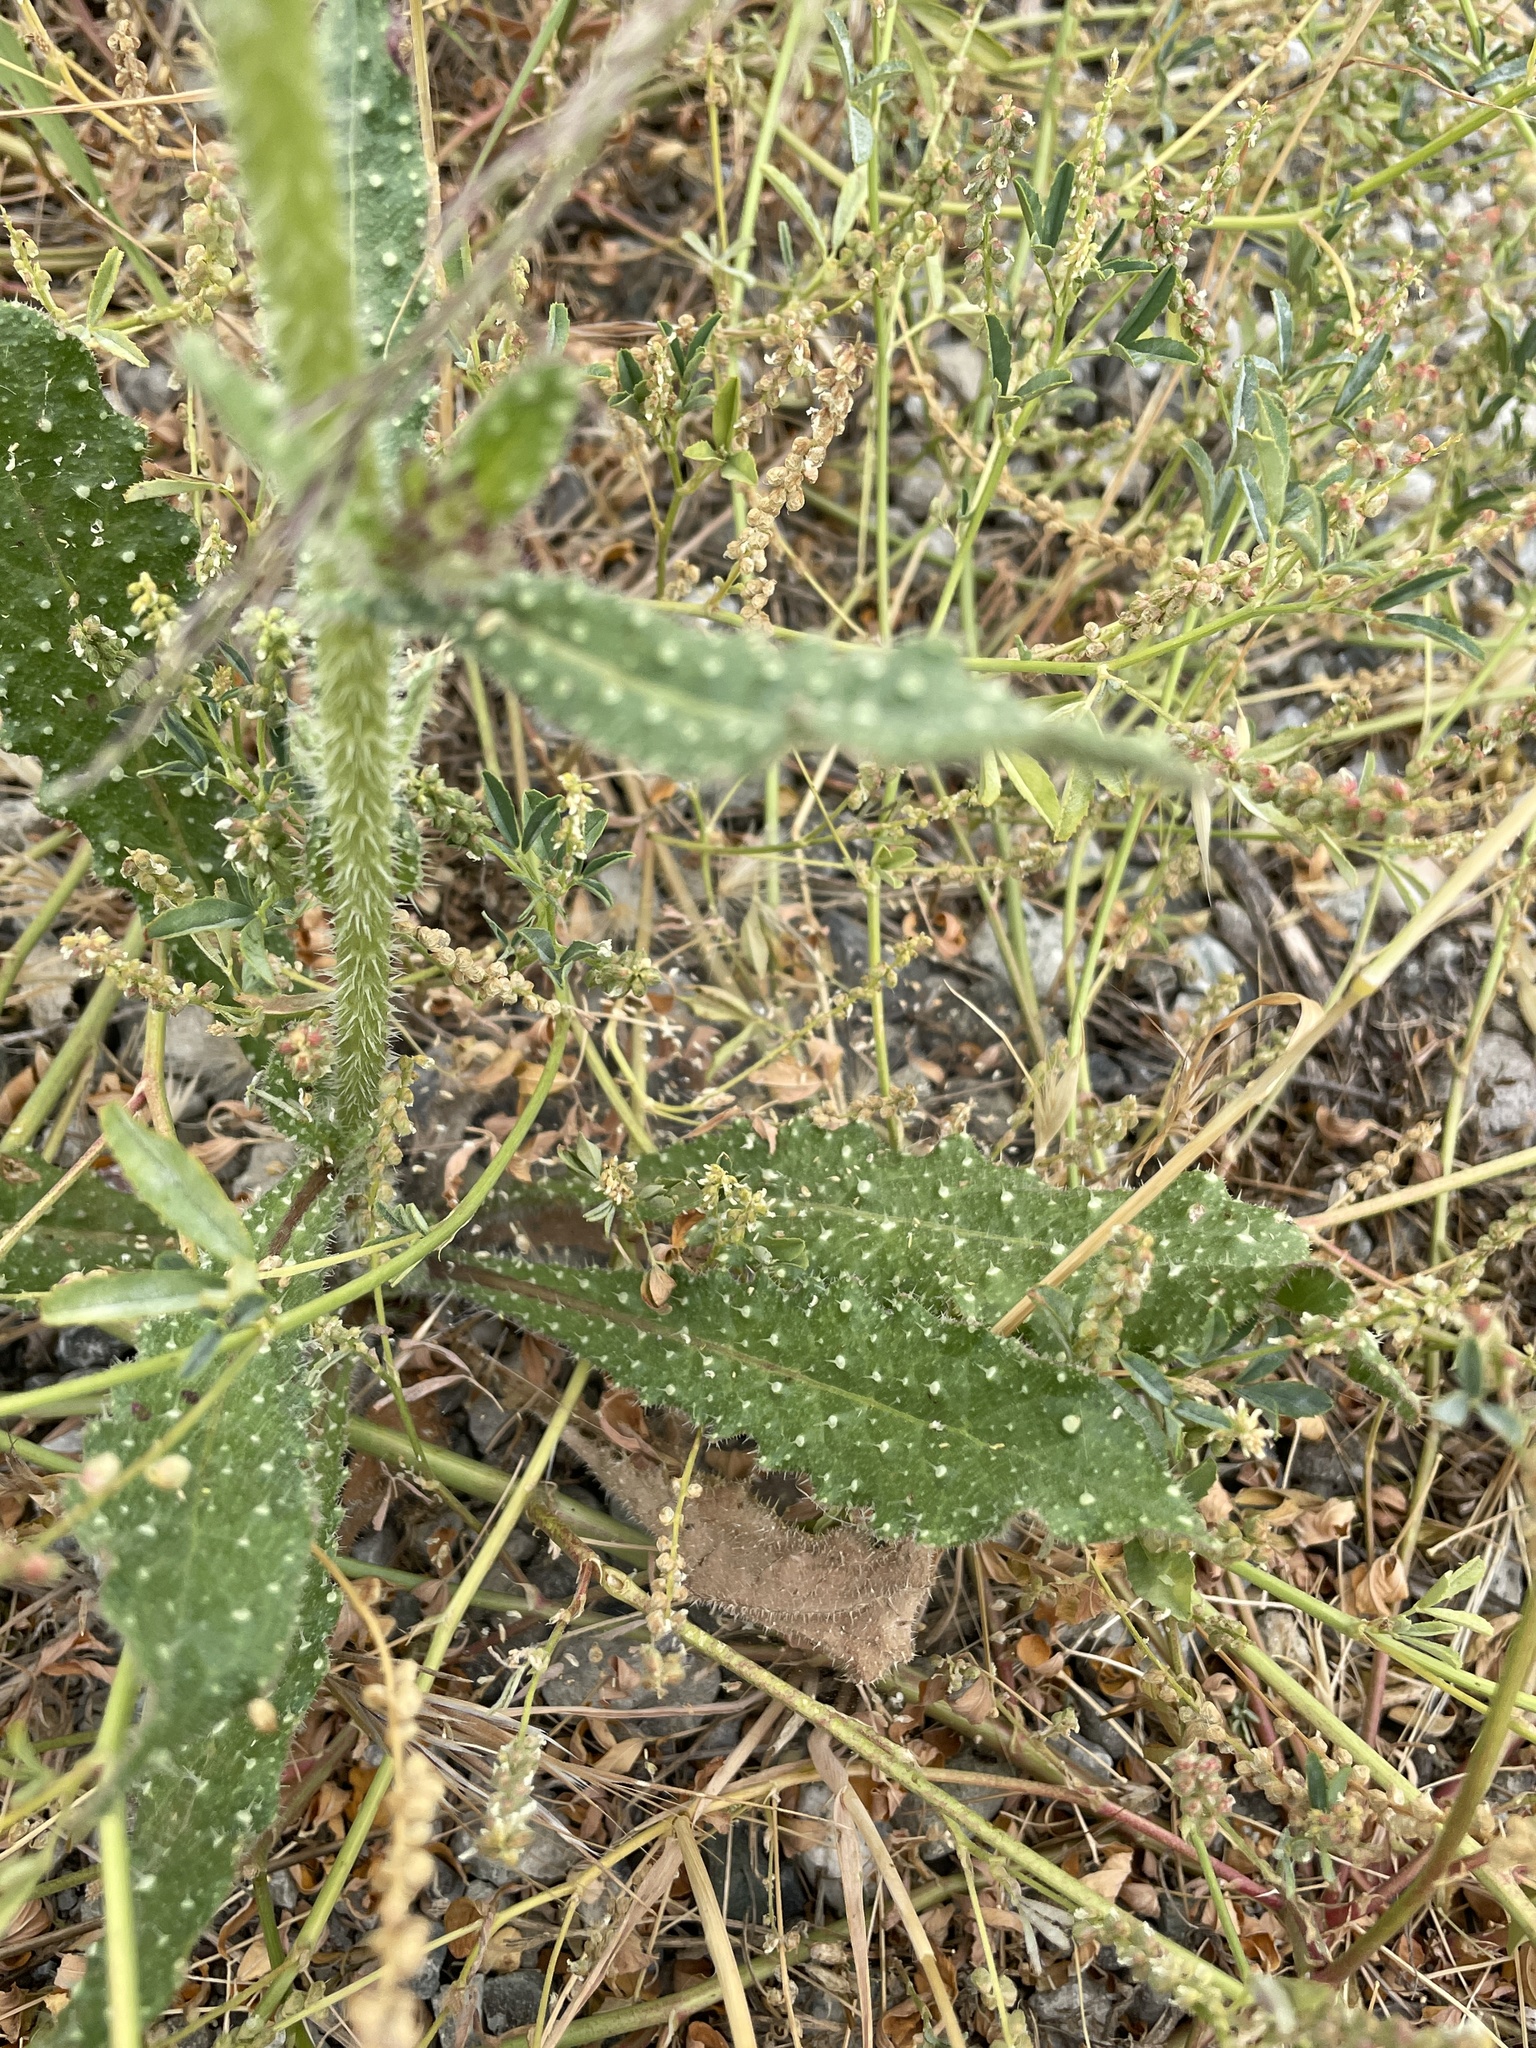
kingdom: Plantae
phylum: Tracheophyta
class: Magnoliopsida
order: Asterales
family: Asteraceae
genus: Helminthotheca
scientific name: Helminthotheca echioides
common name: Ox-tongue
